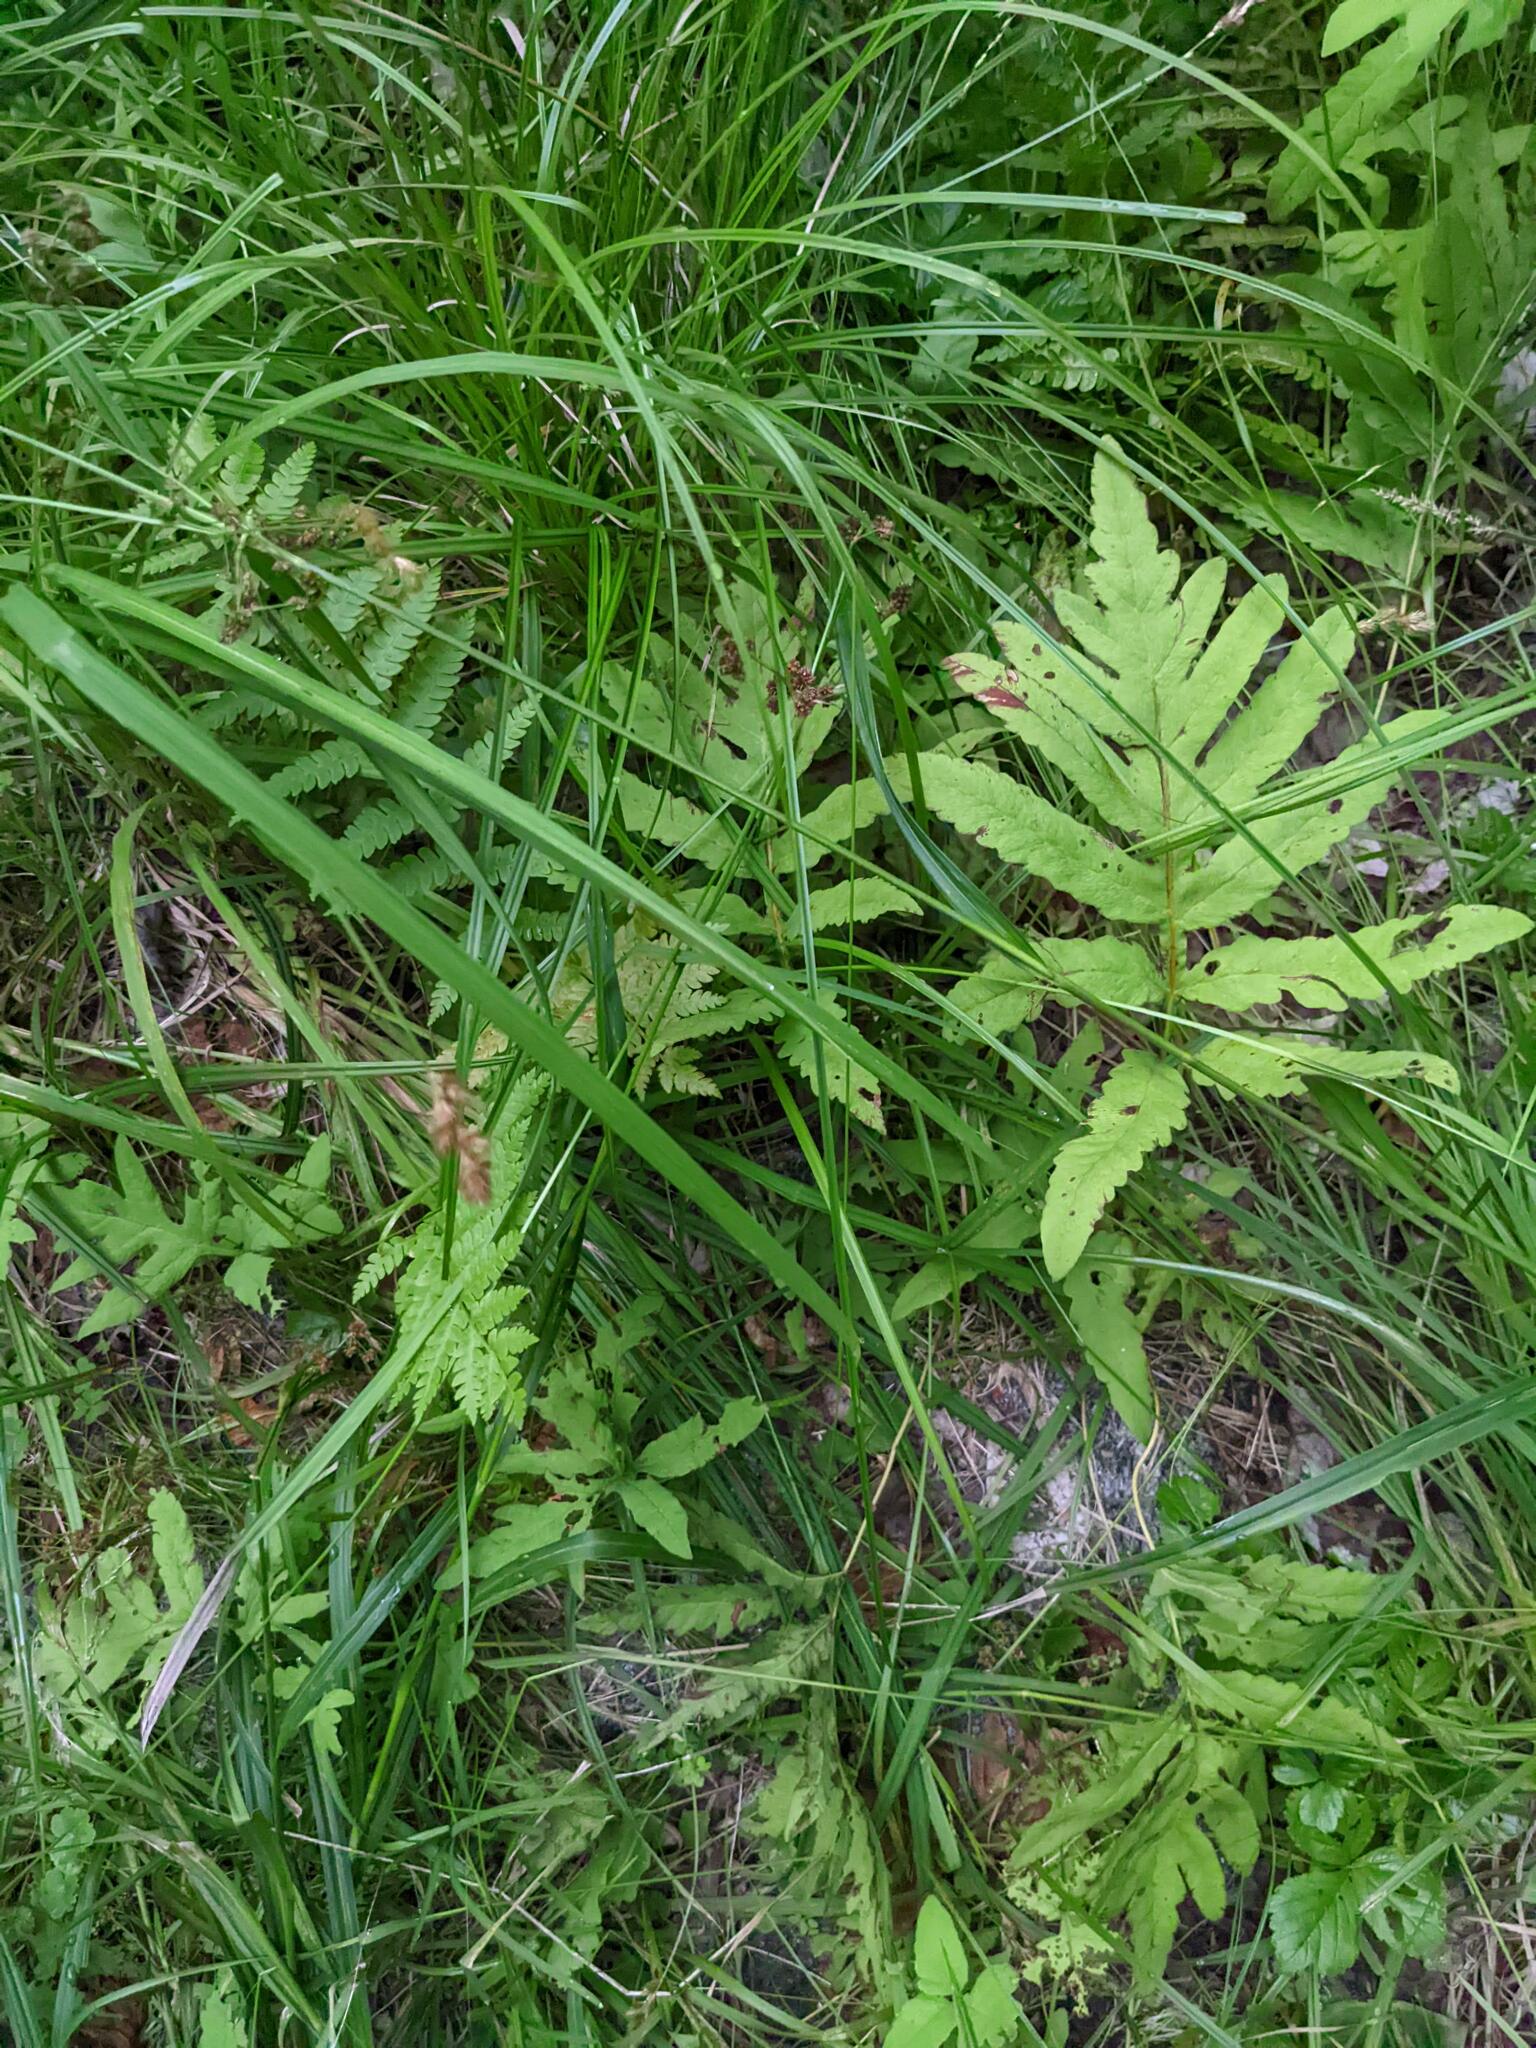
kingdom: Plantae
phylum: Tracheophyta
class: Polypodiopsida
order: Polypodiales
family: Onocleaceae
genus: Onoclea
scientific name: Onoclea sensibilis
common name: Sensitive fern
